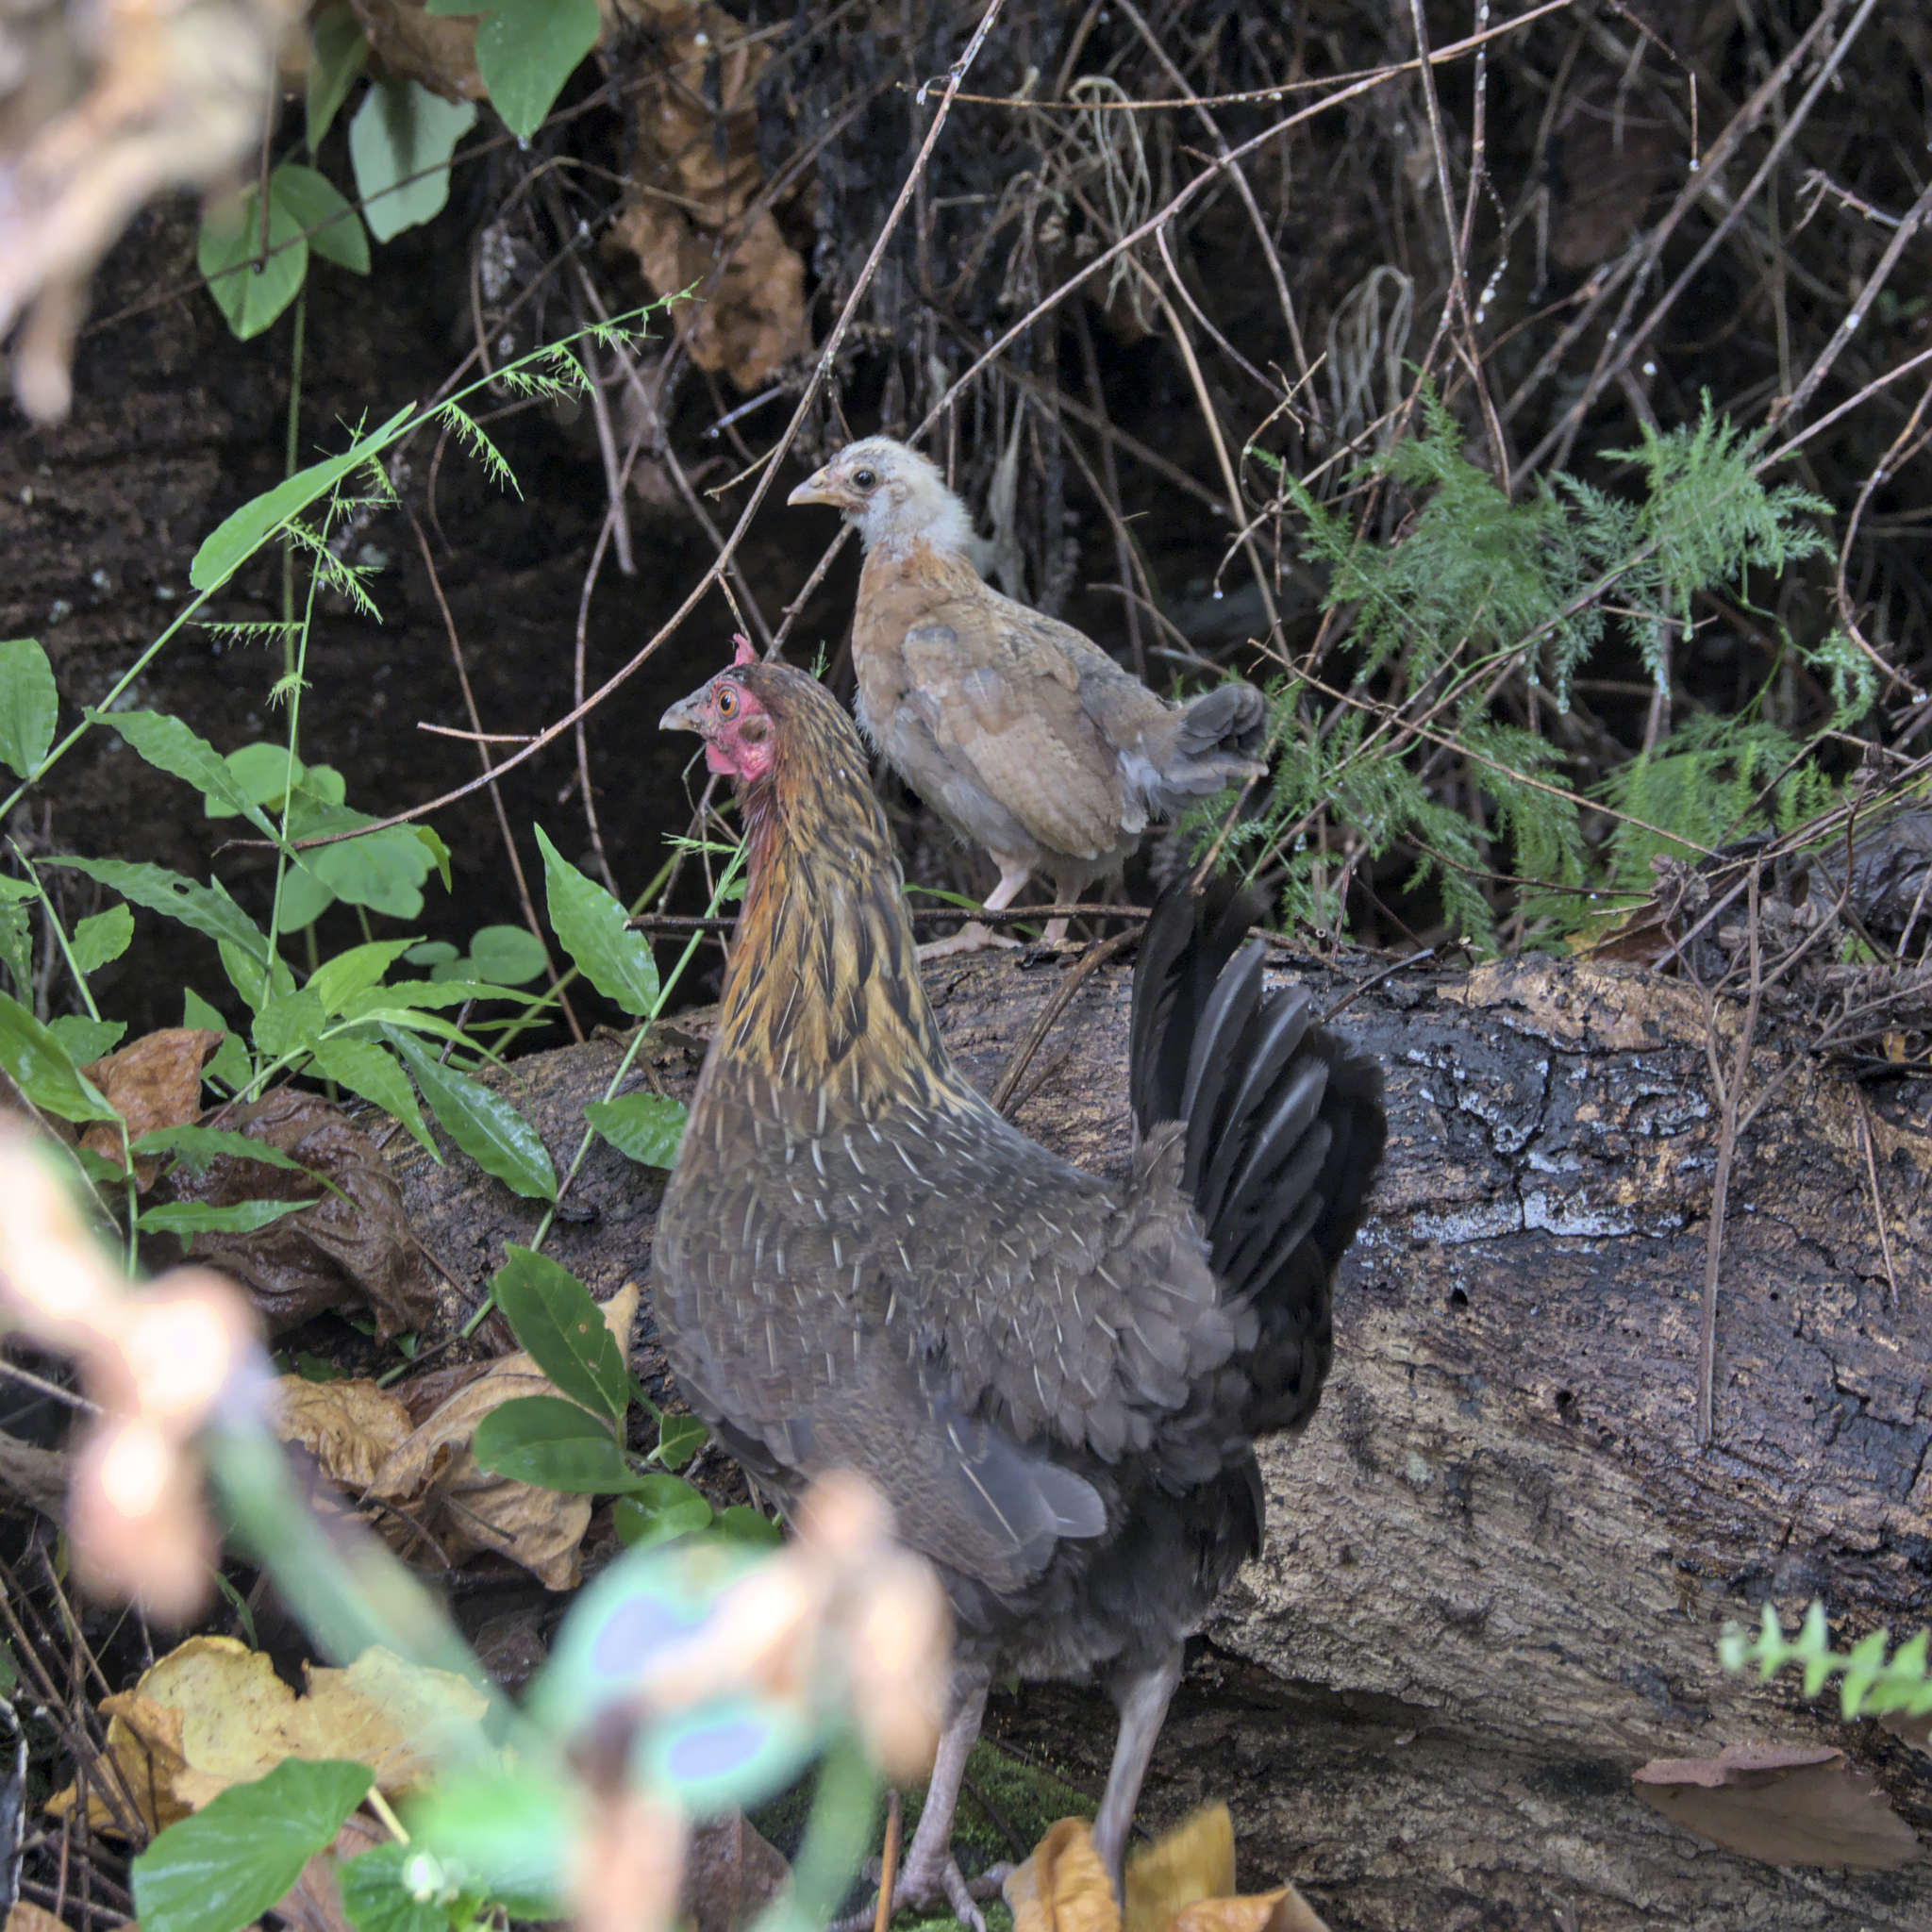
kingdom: Animalia
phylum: Chordata
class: Aves
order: Galliformes
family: Phasianidae
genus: Gallus
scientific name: Gallus gallus
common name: Red junglefowl
